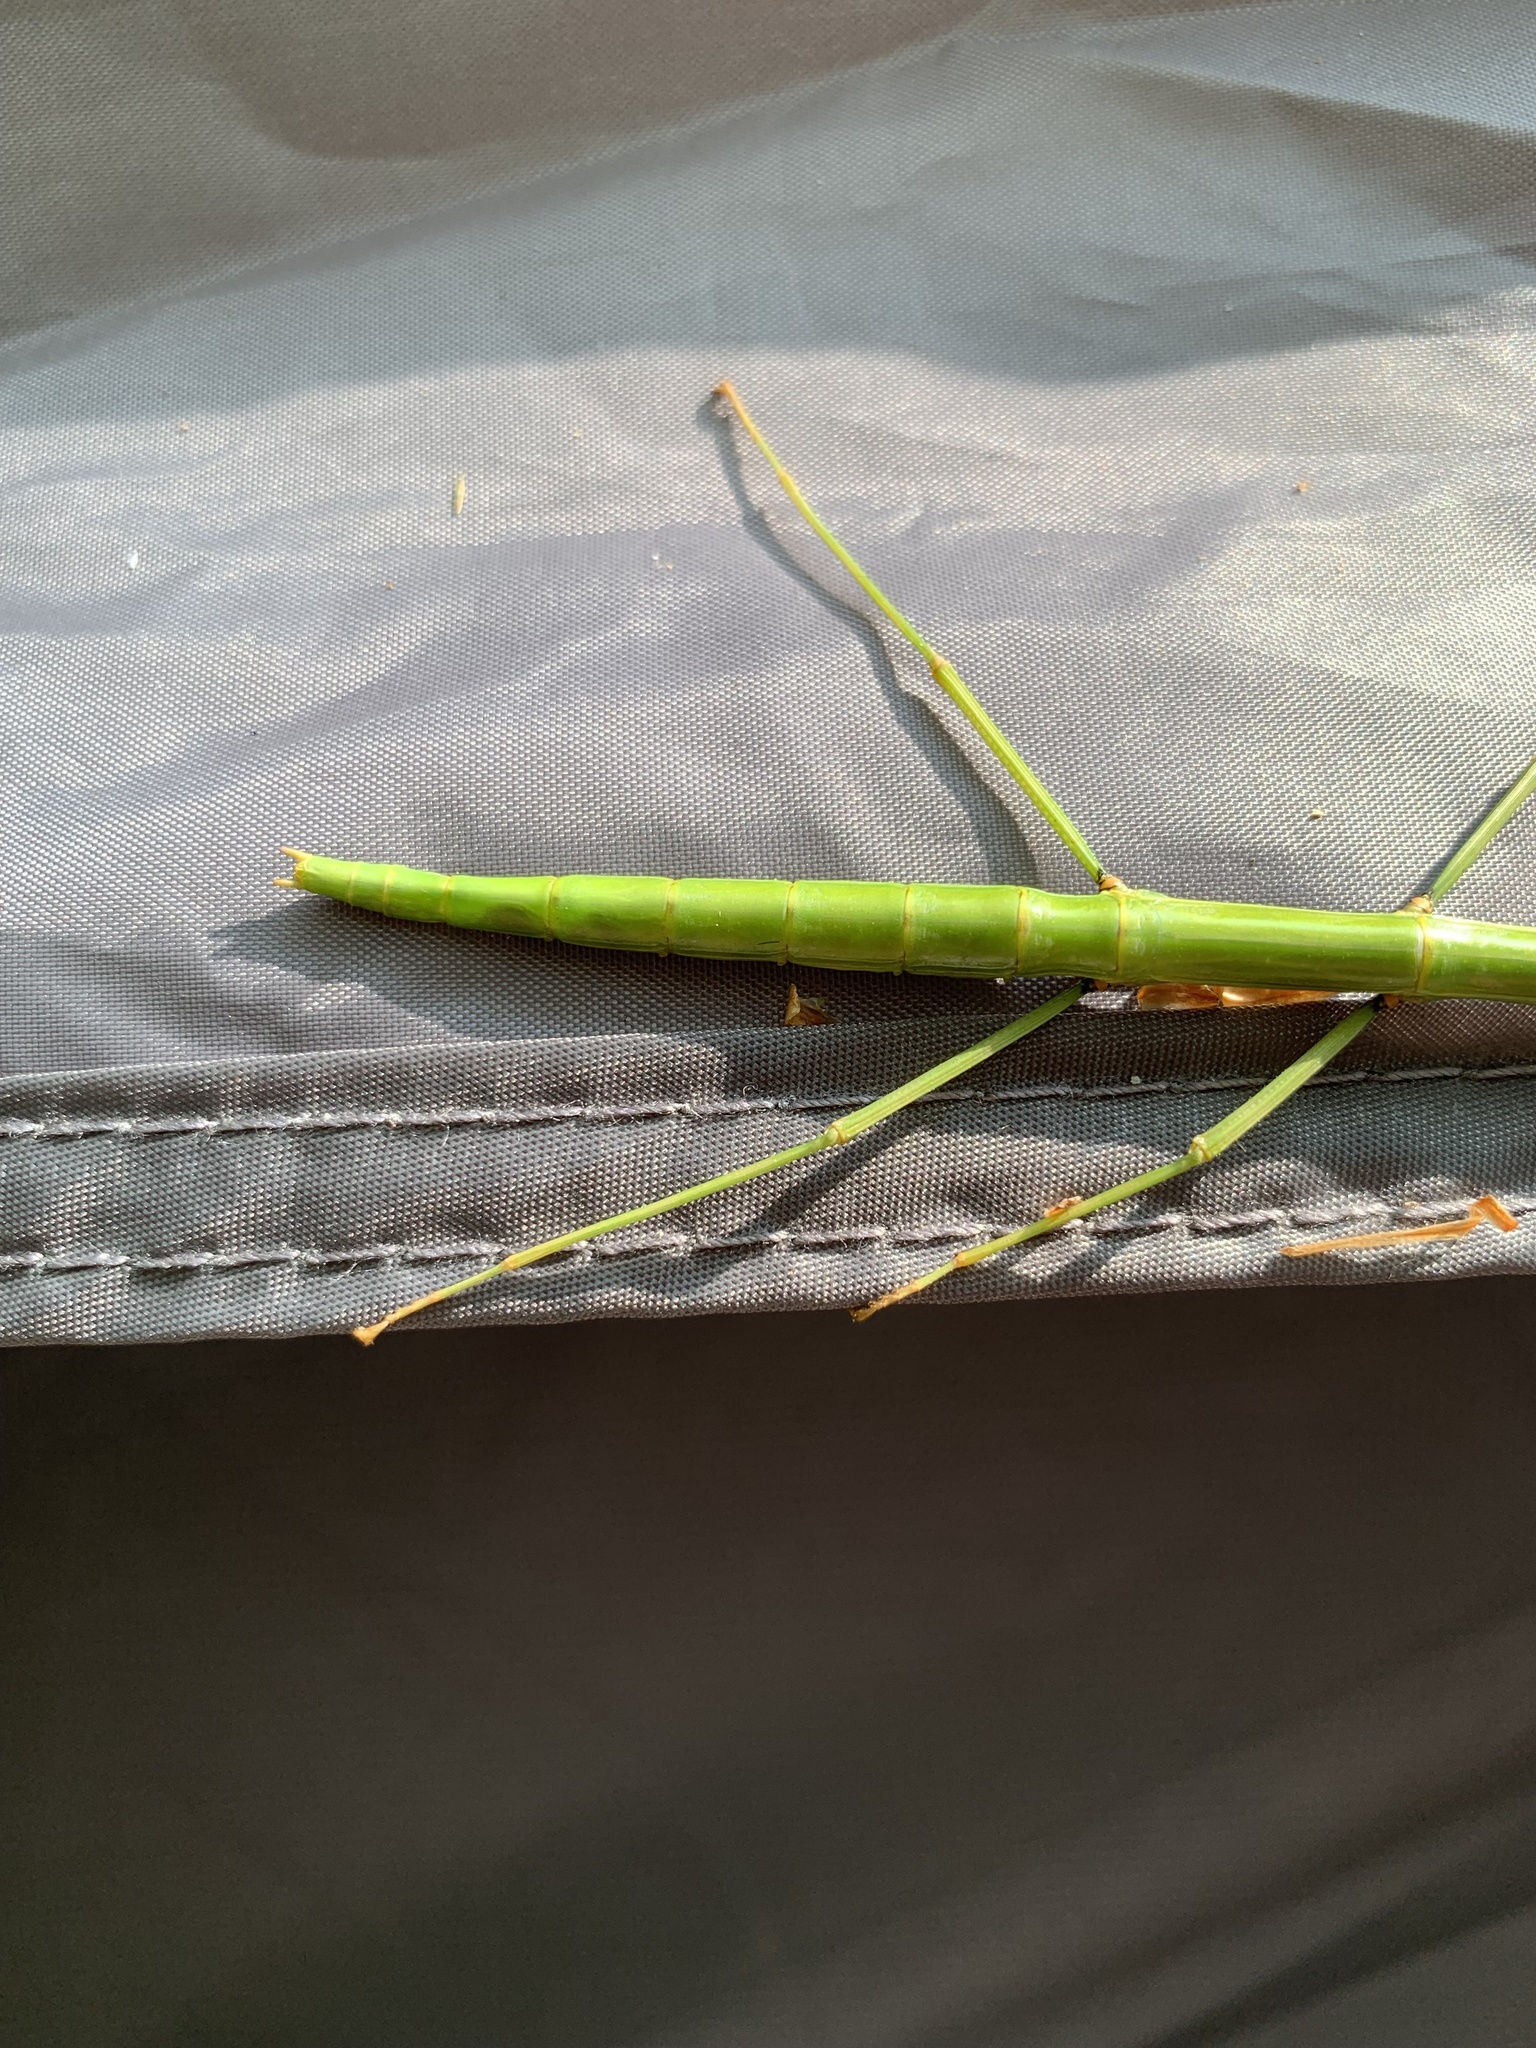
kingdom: Animalia
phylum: Arthropoda
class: Insecta
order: Phasmida
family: Diapheromeridae
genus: Diapheromera
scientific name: Diapheromera femorata
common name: Common american walkingstick
